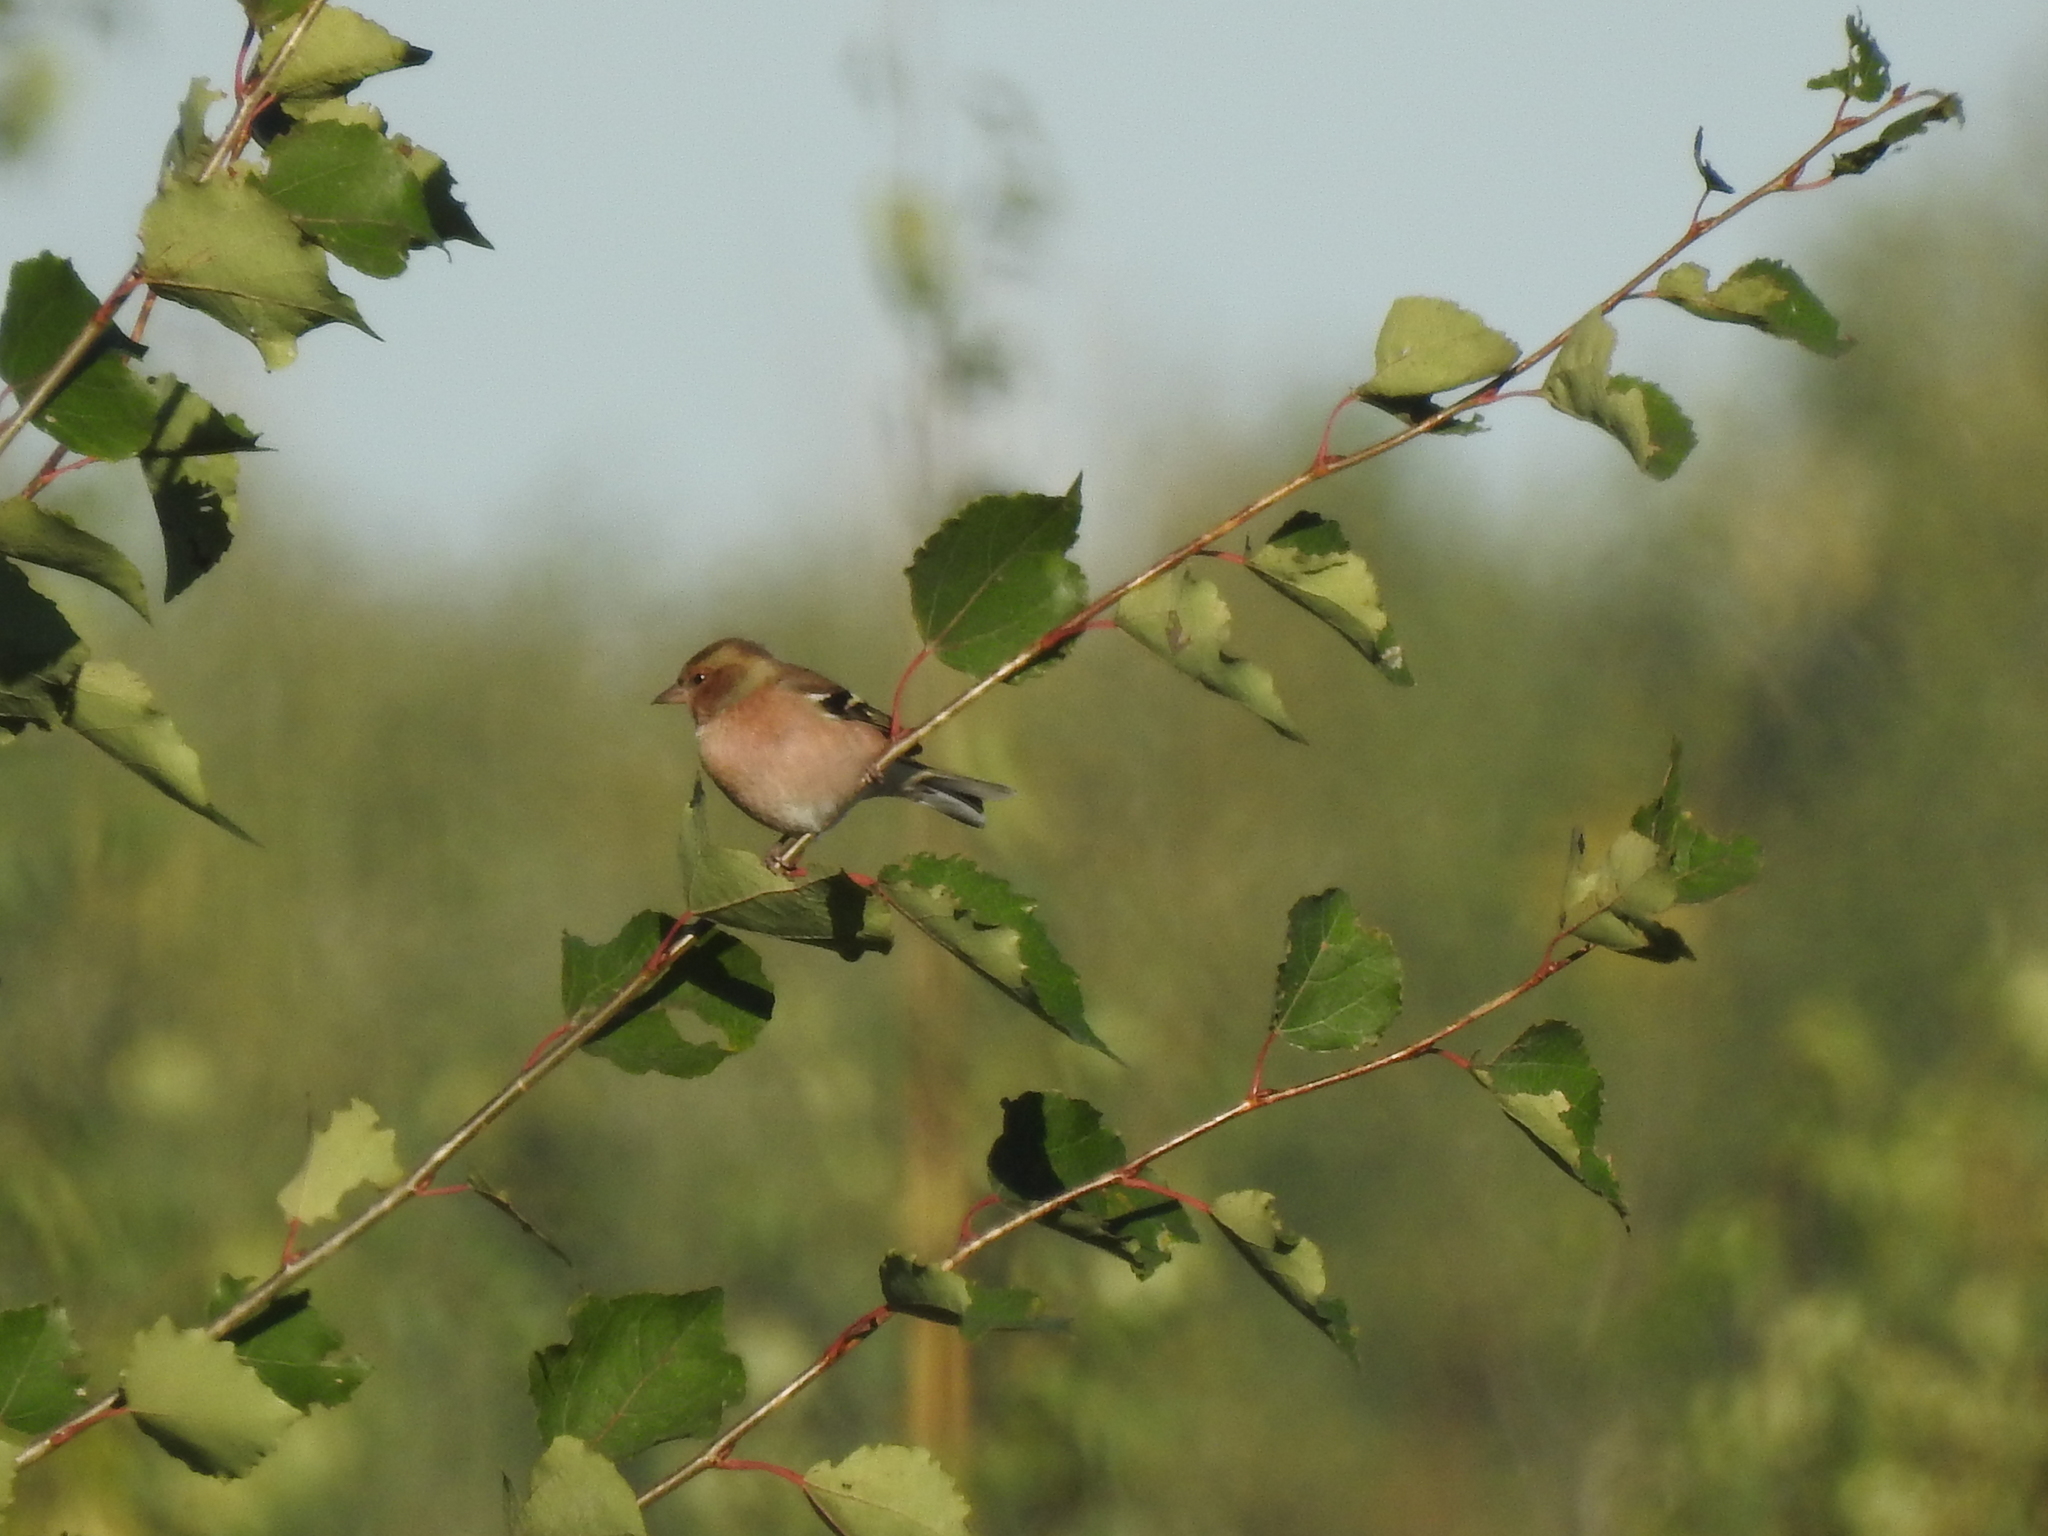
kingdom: Animalia
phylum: Chordata
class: Aves
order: Passeriformes
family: Fringillidae
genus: Fringilla
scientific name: Fringilla coelebs
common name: Common chaffinch
